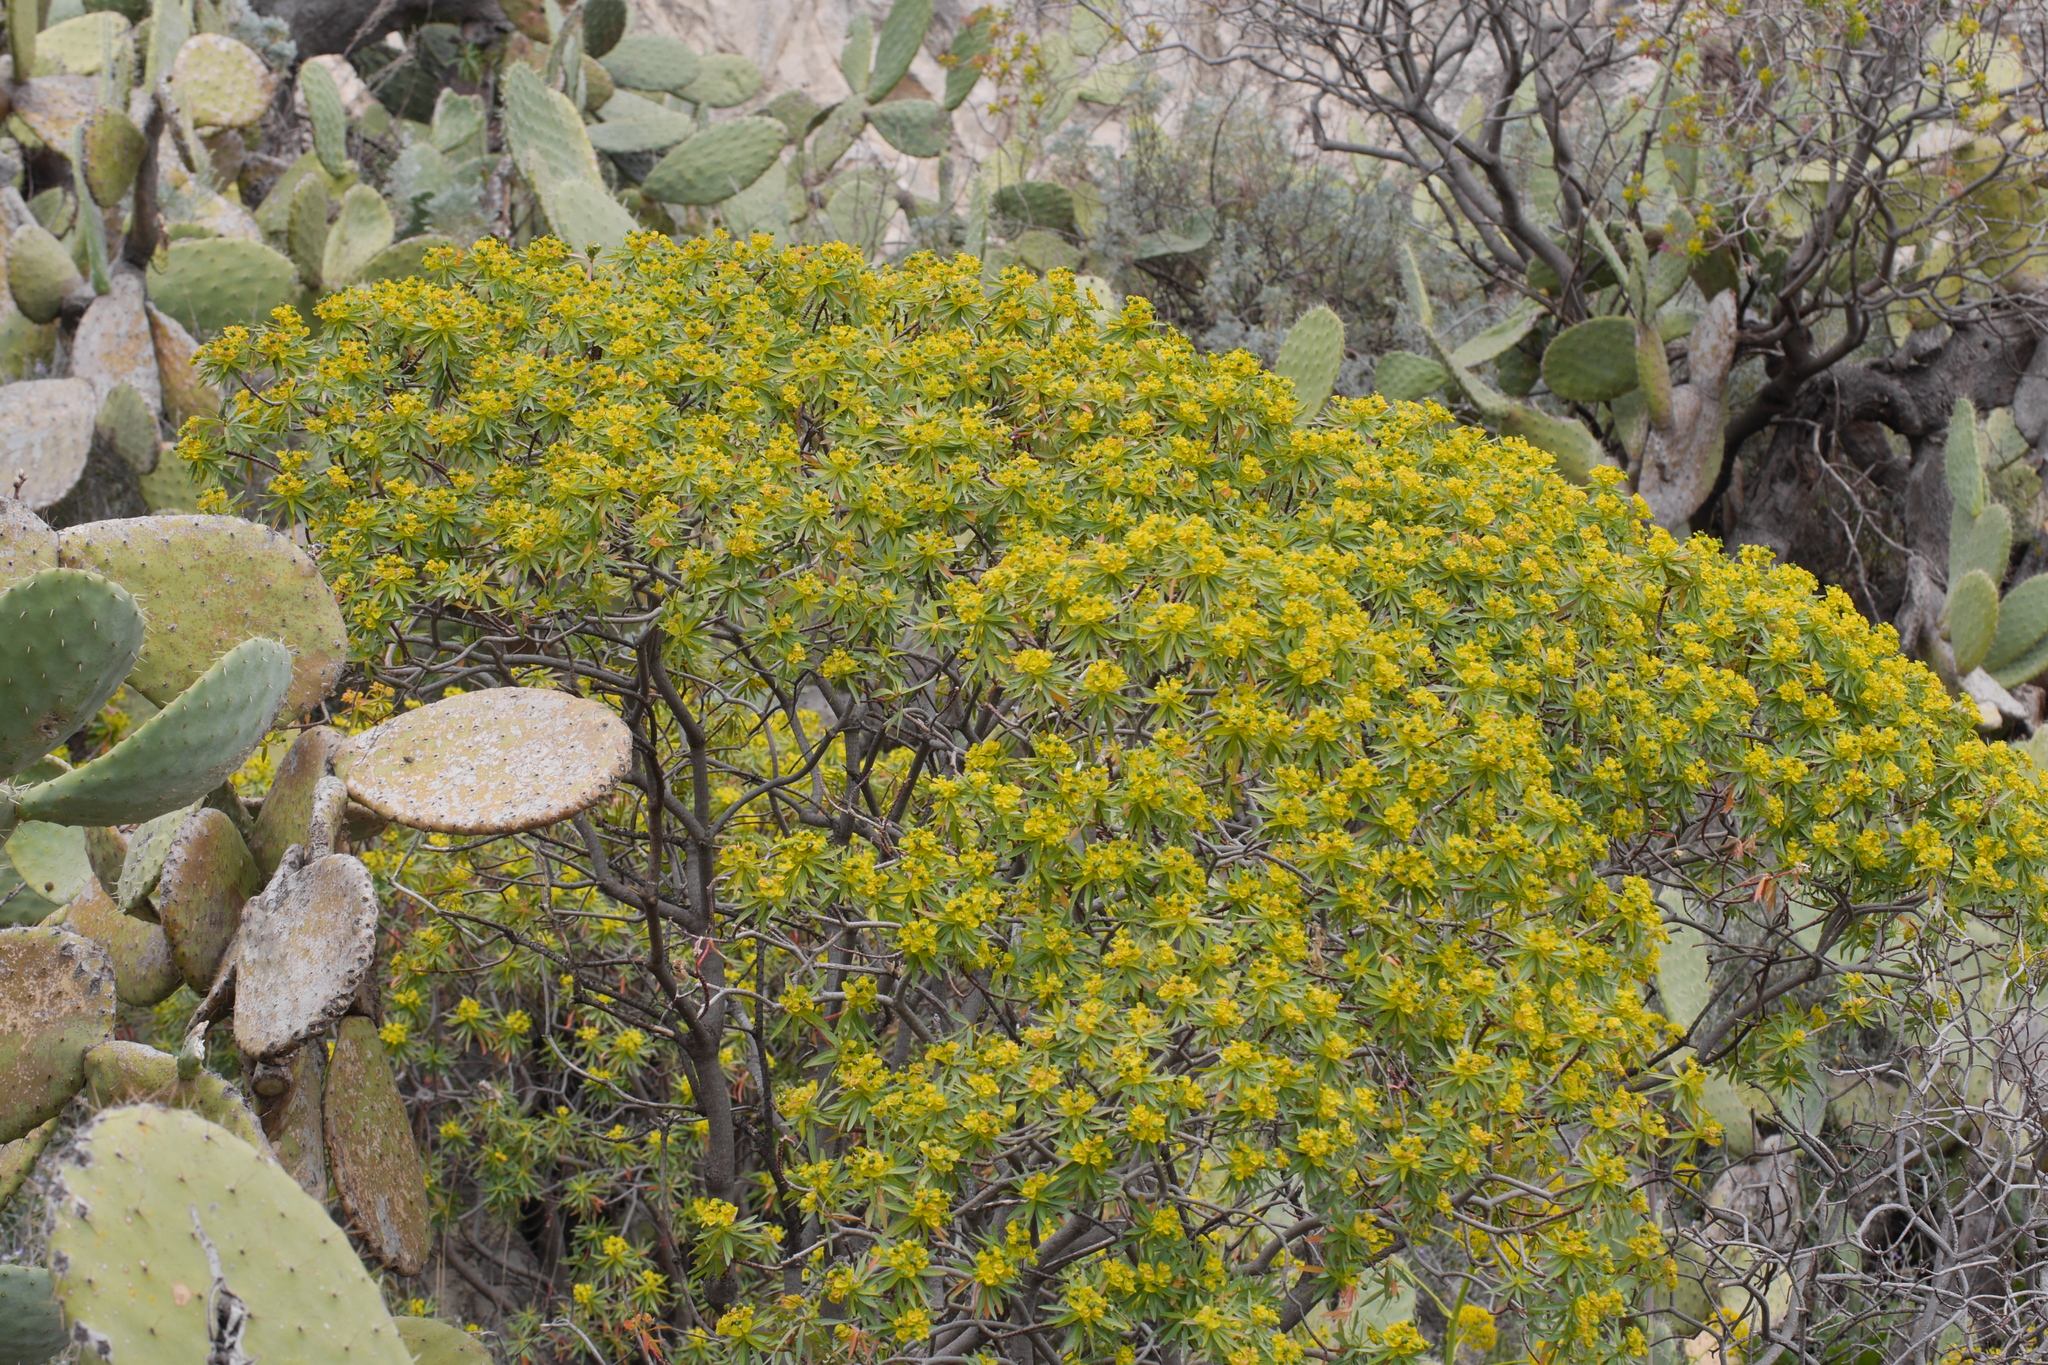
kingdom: Plantae
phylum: Tracheophyta
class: Magnoliopsida
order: Malpighiales
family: Euphorbiaceae
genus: Euphorbia
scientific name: Euphorbia dendroides
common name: Tree spurge
